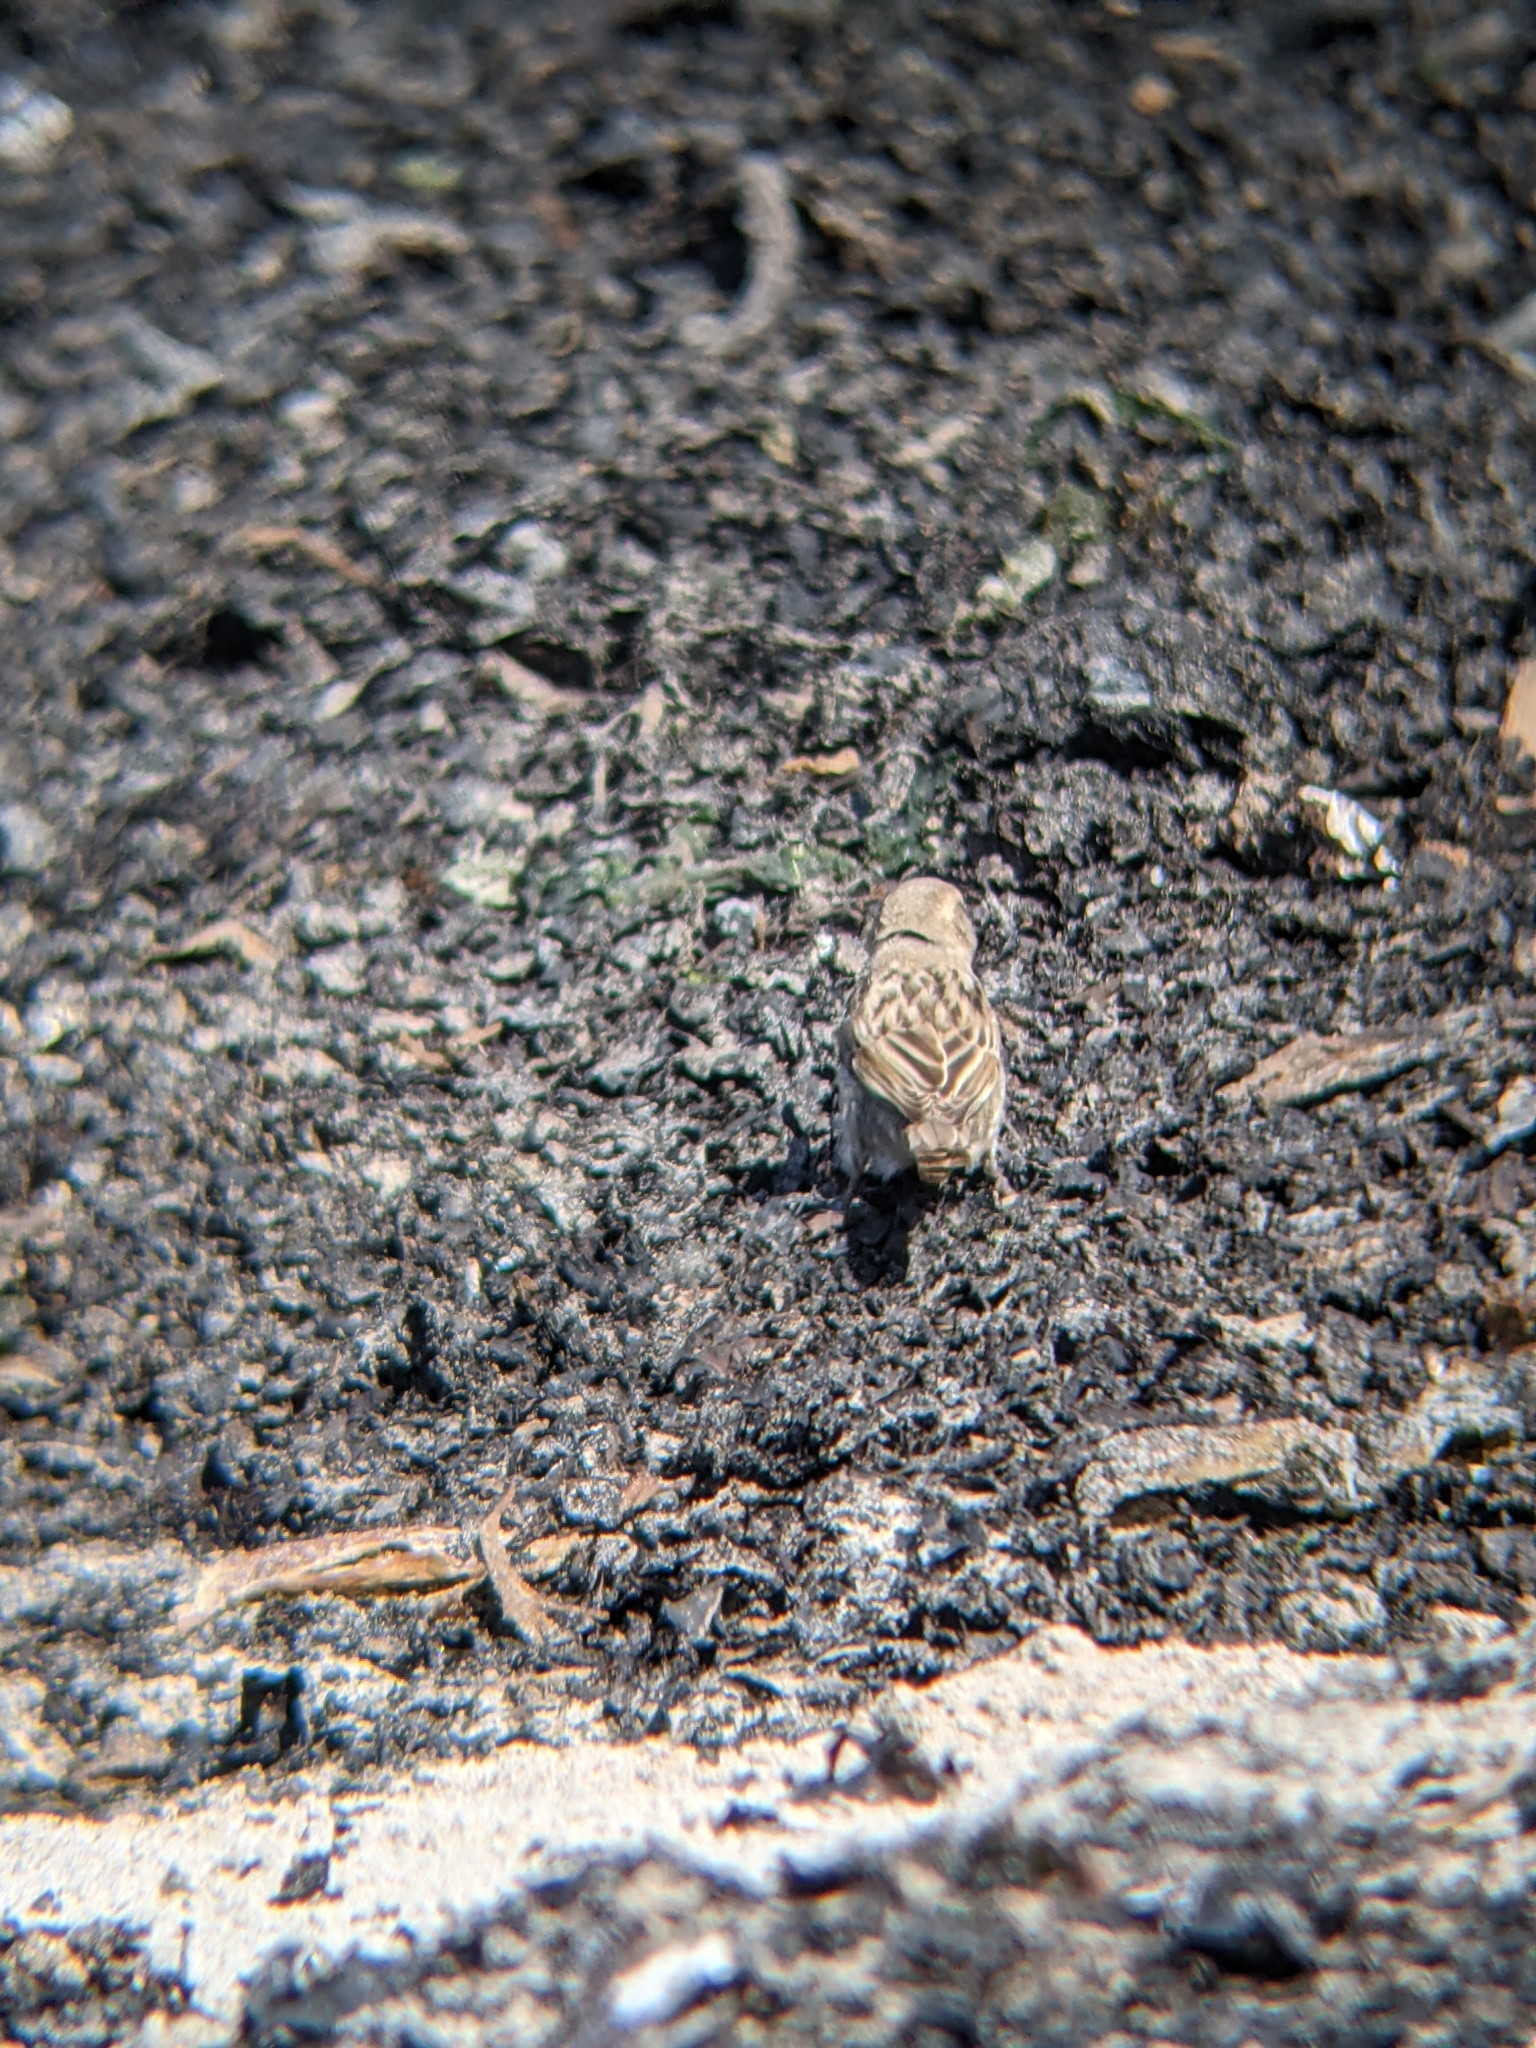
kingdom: Animalia
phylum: Chordata
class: Aves
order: Passeriformes
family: Passeridae
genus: Passer
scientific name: Passer domesticus
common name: House sparrow
